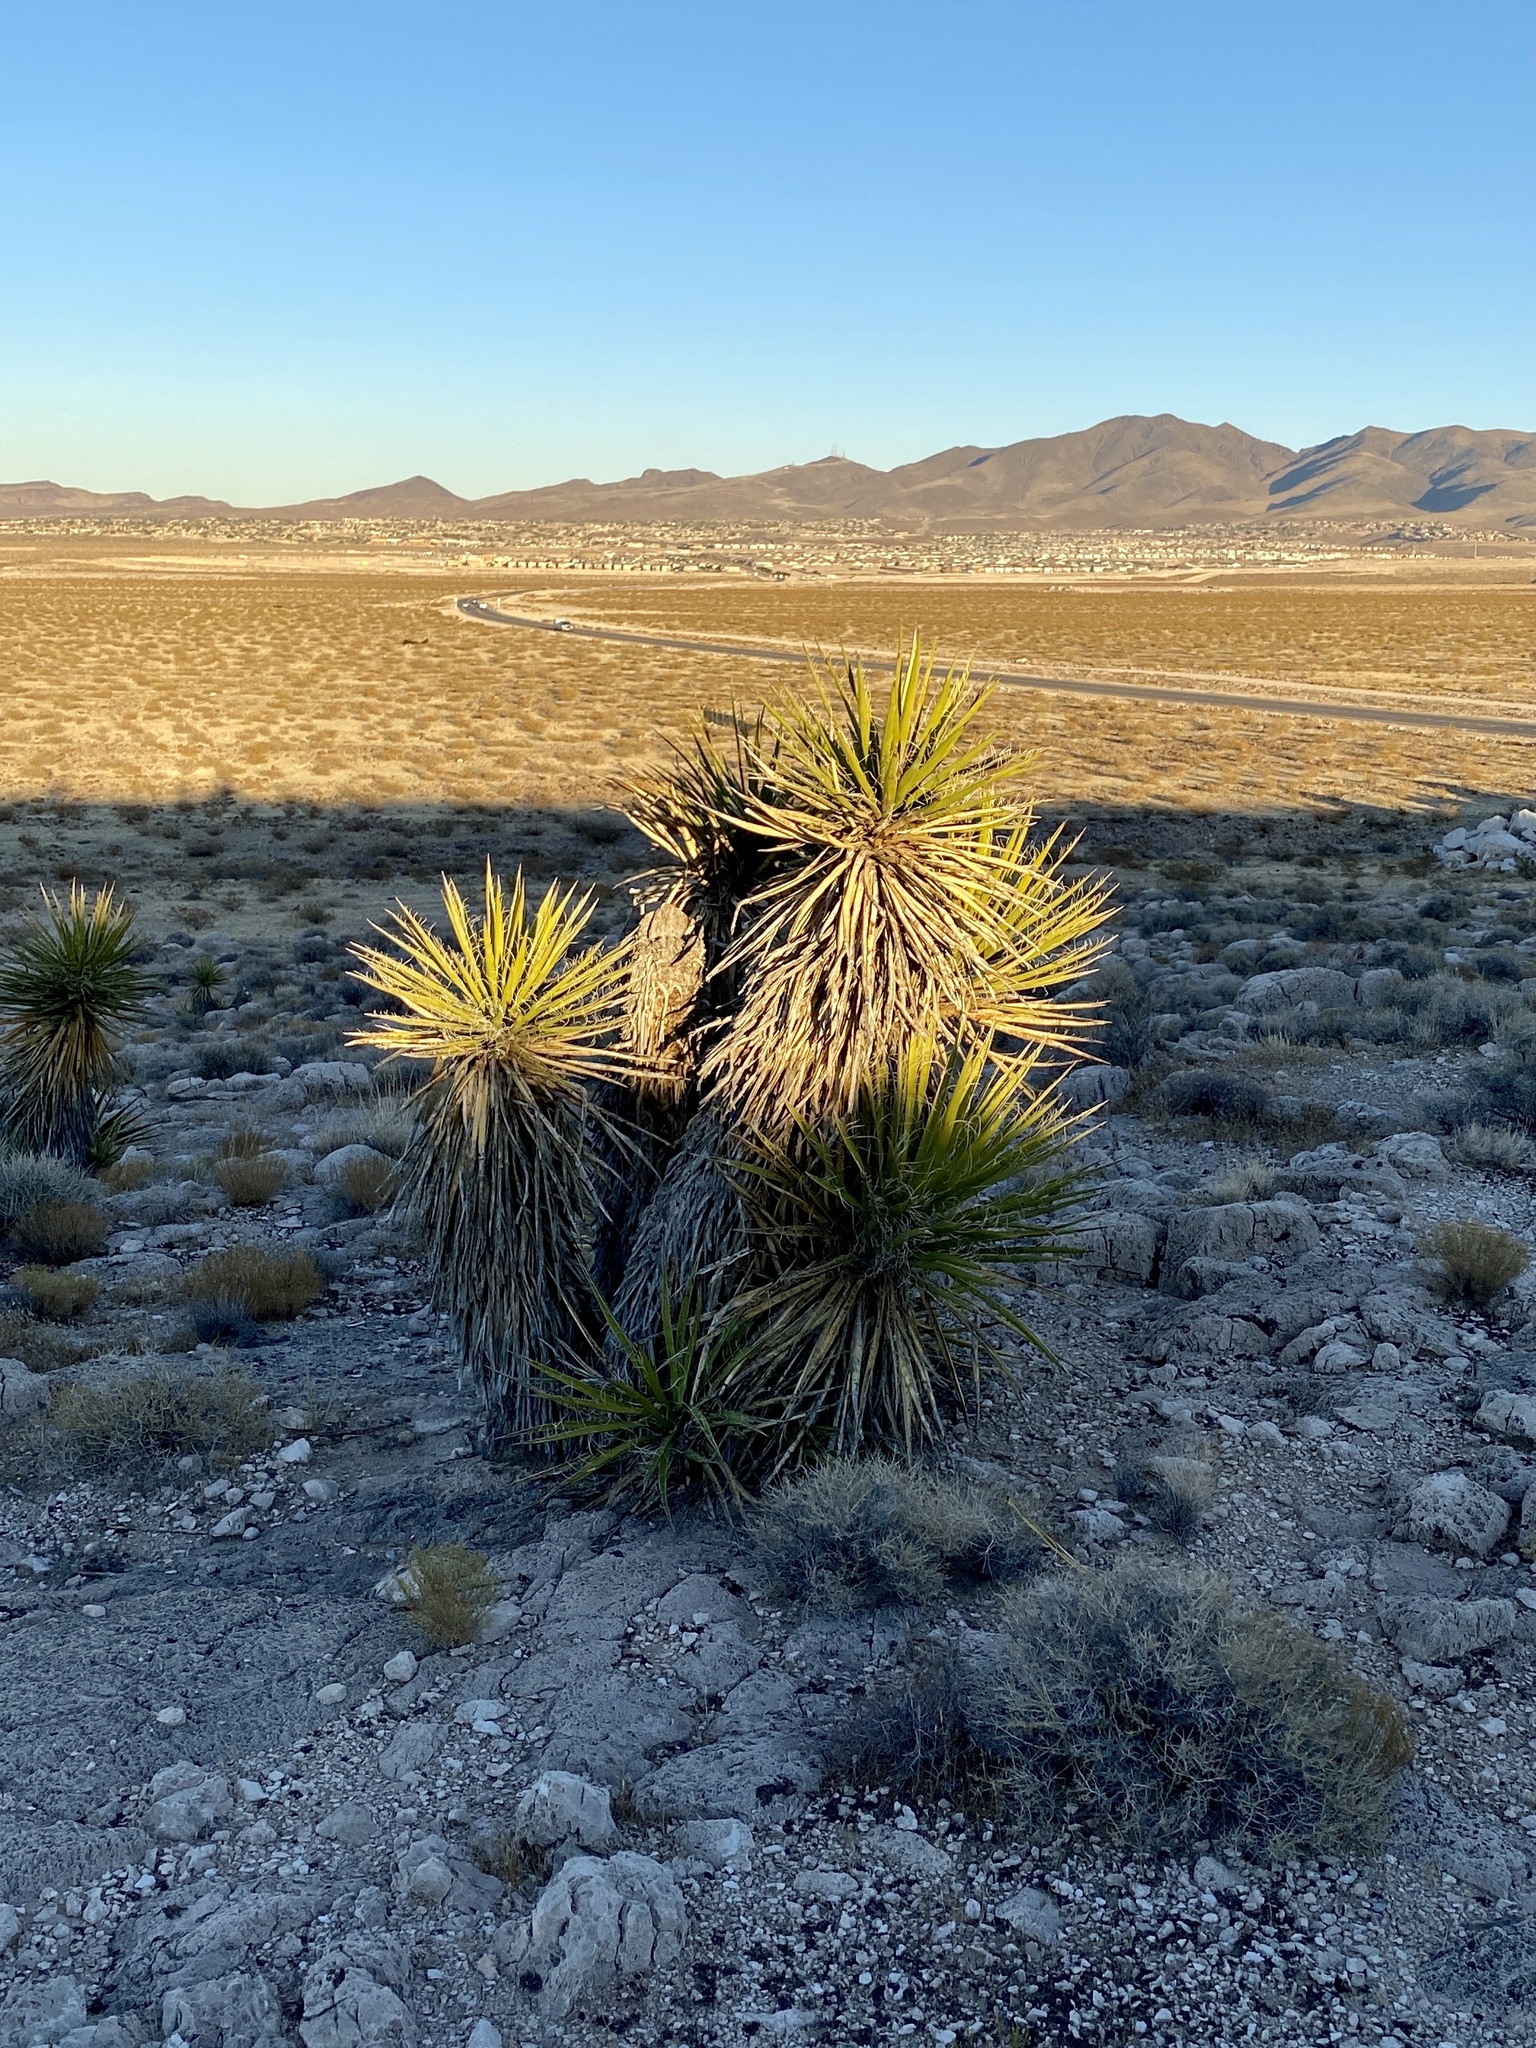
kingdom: Plantae
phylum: Tracheophyta
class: Liliopsida
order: Asparagales
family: Asparagaceae
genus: Yucca
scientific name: Yucca schidigera
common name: Mojave yucca
